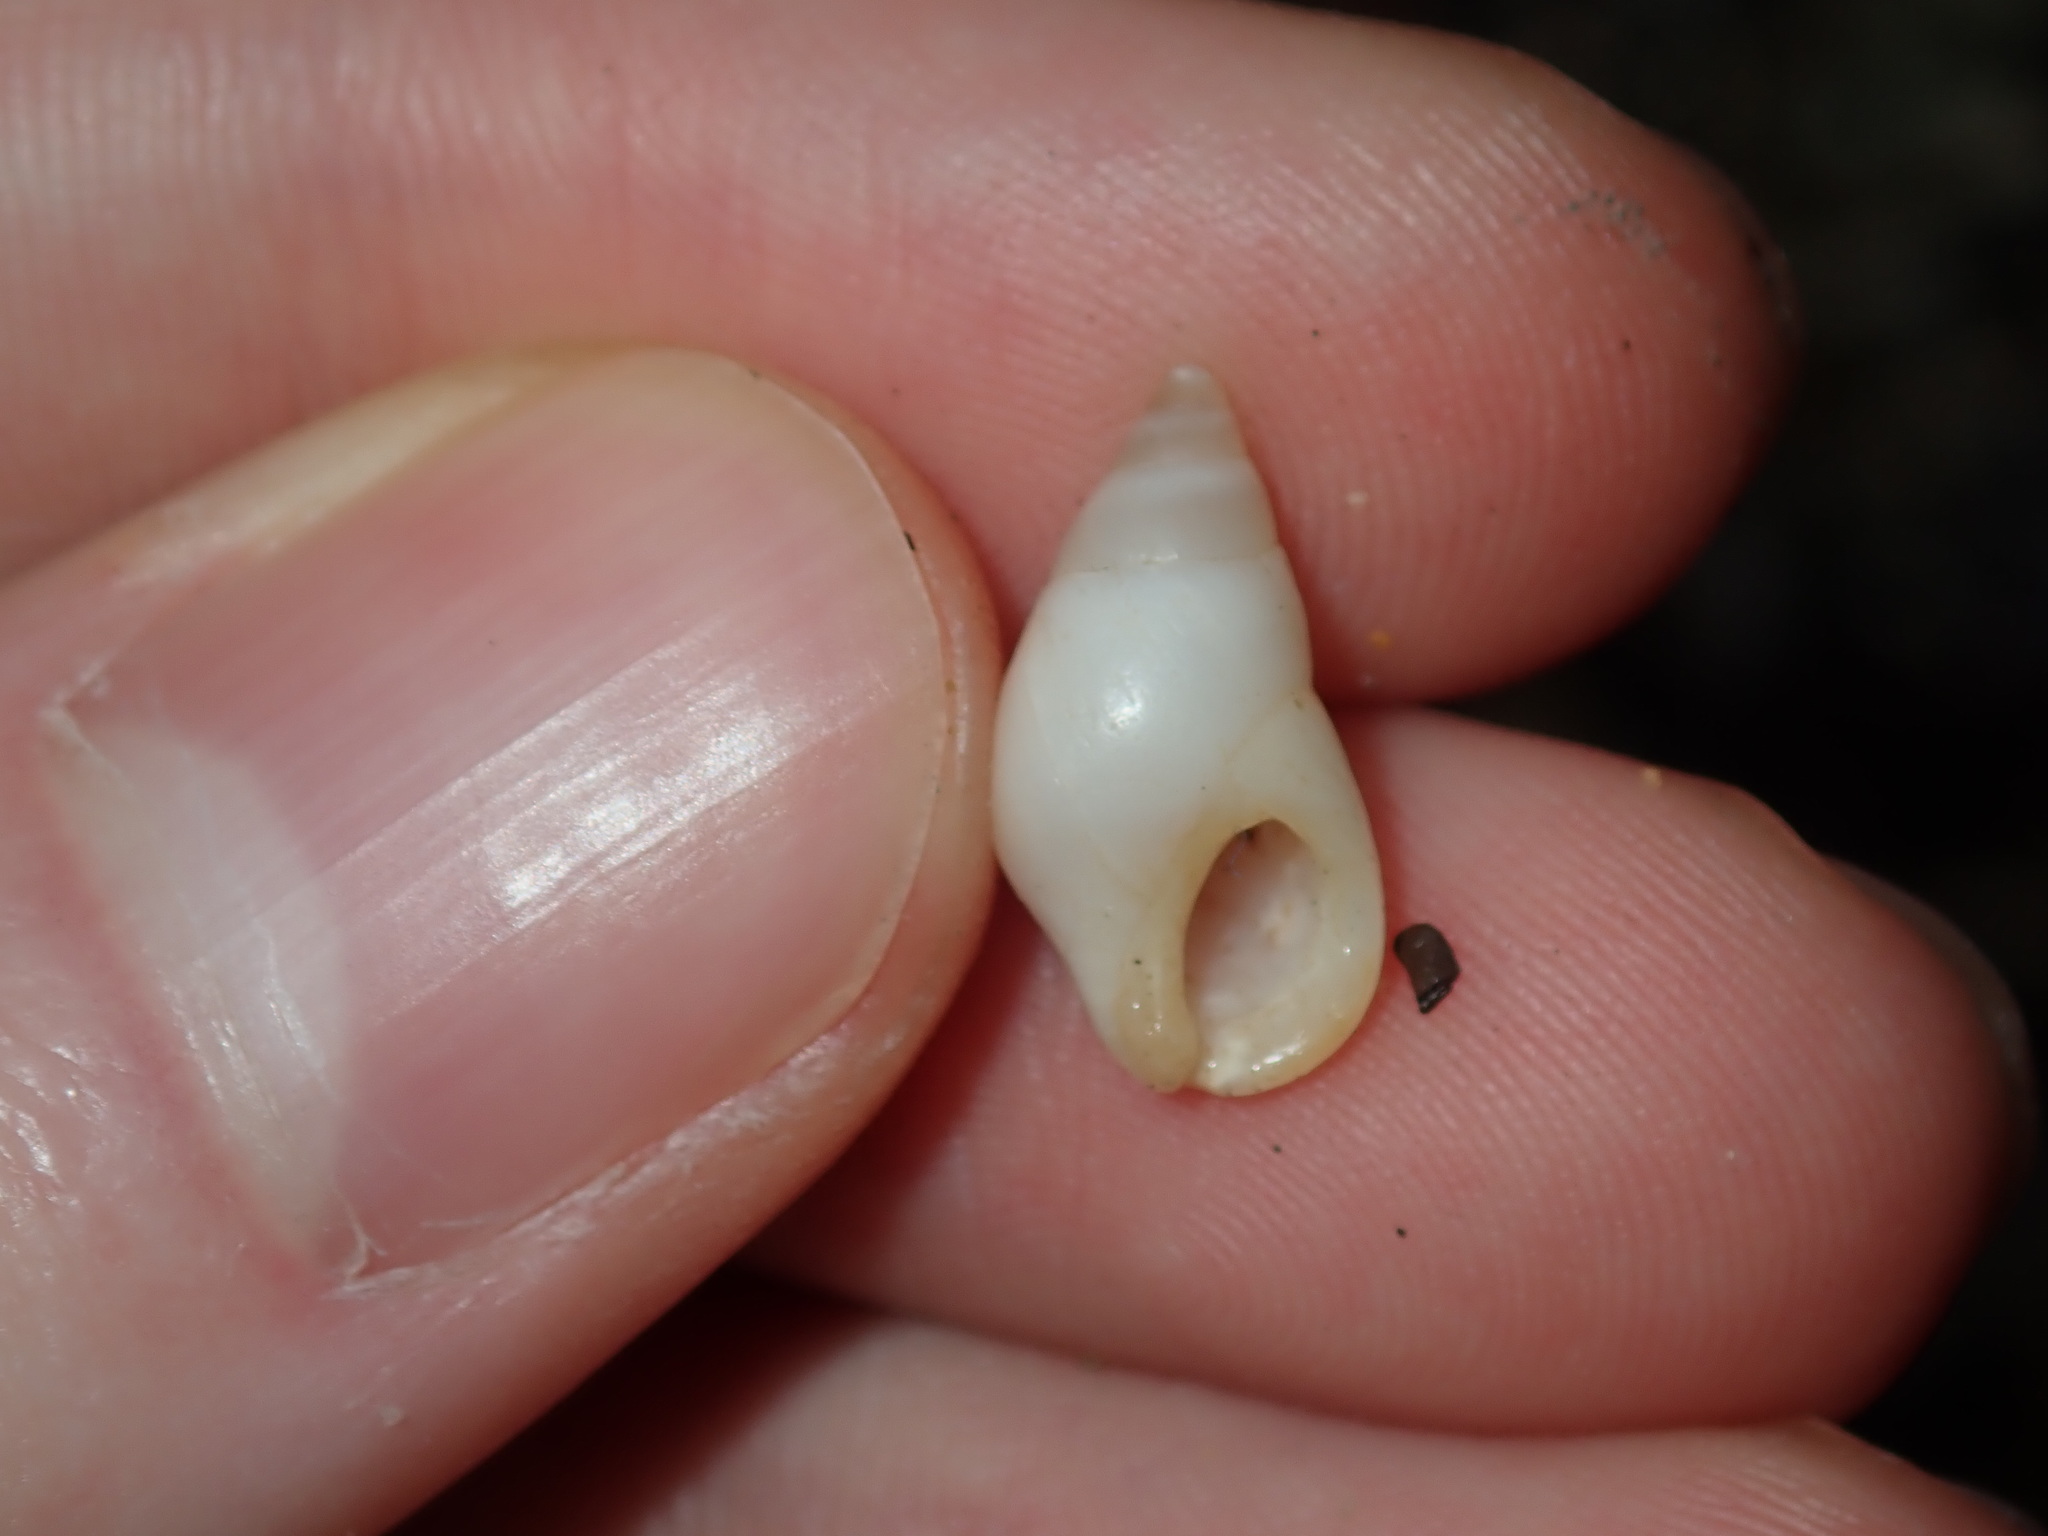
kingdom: Animalia
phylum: Mollusca
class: Gastropoda
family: Planaxidae
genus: Hinea
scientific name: Hinea brasiliana
